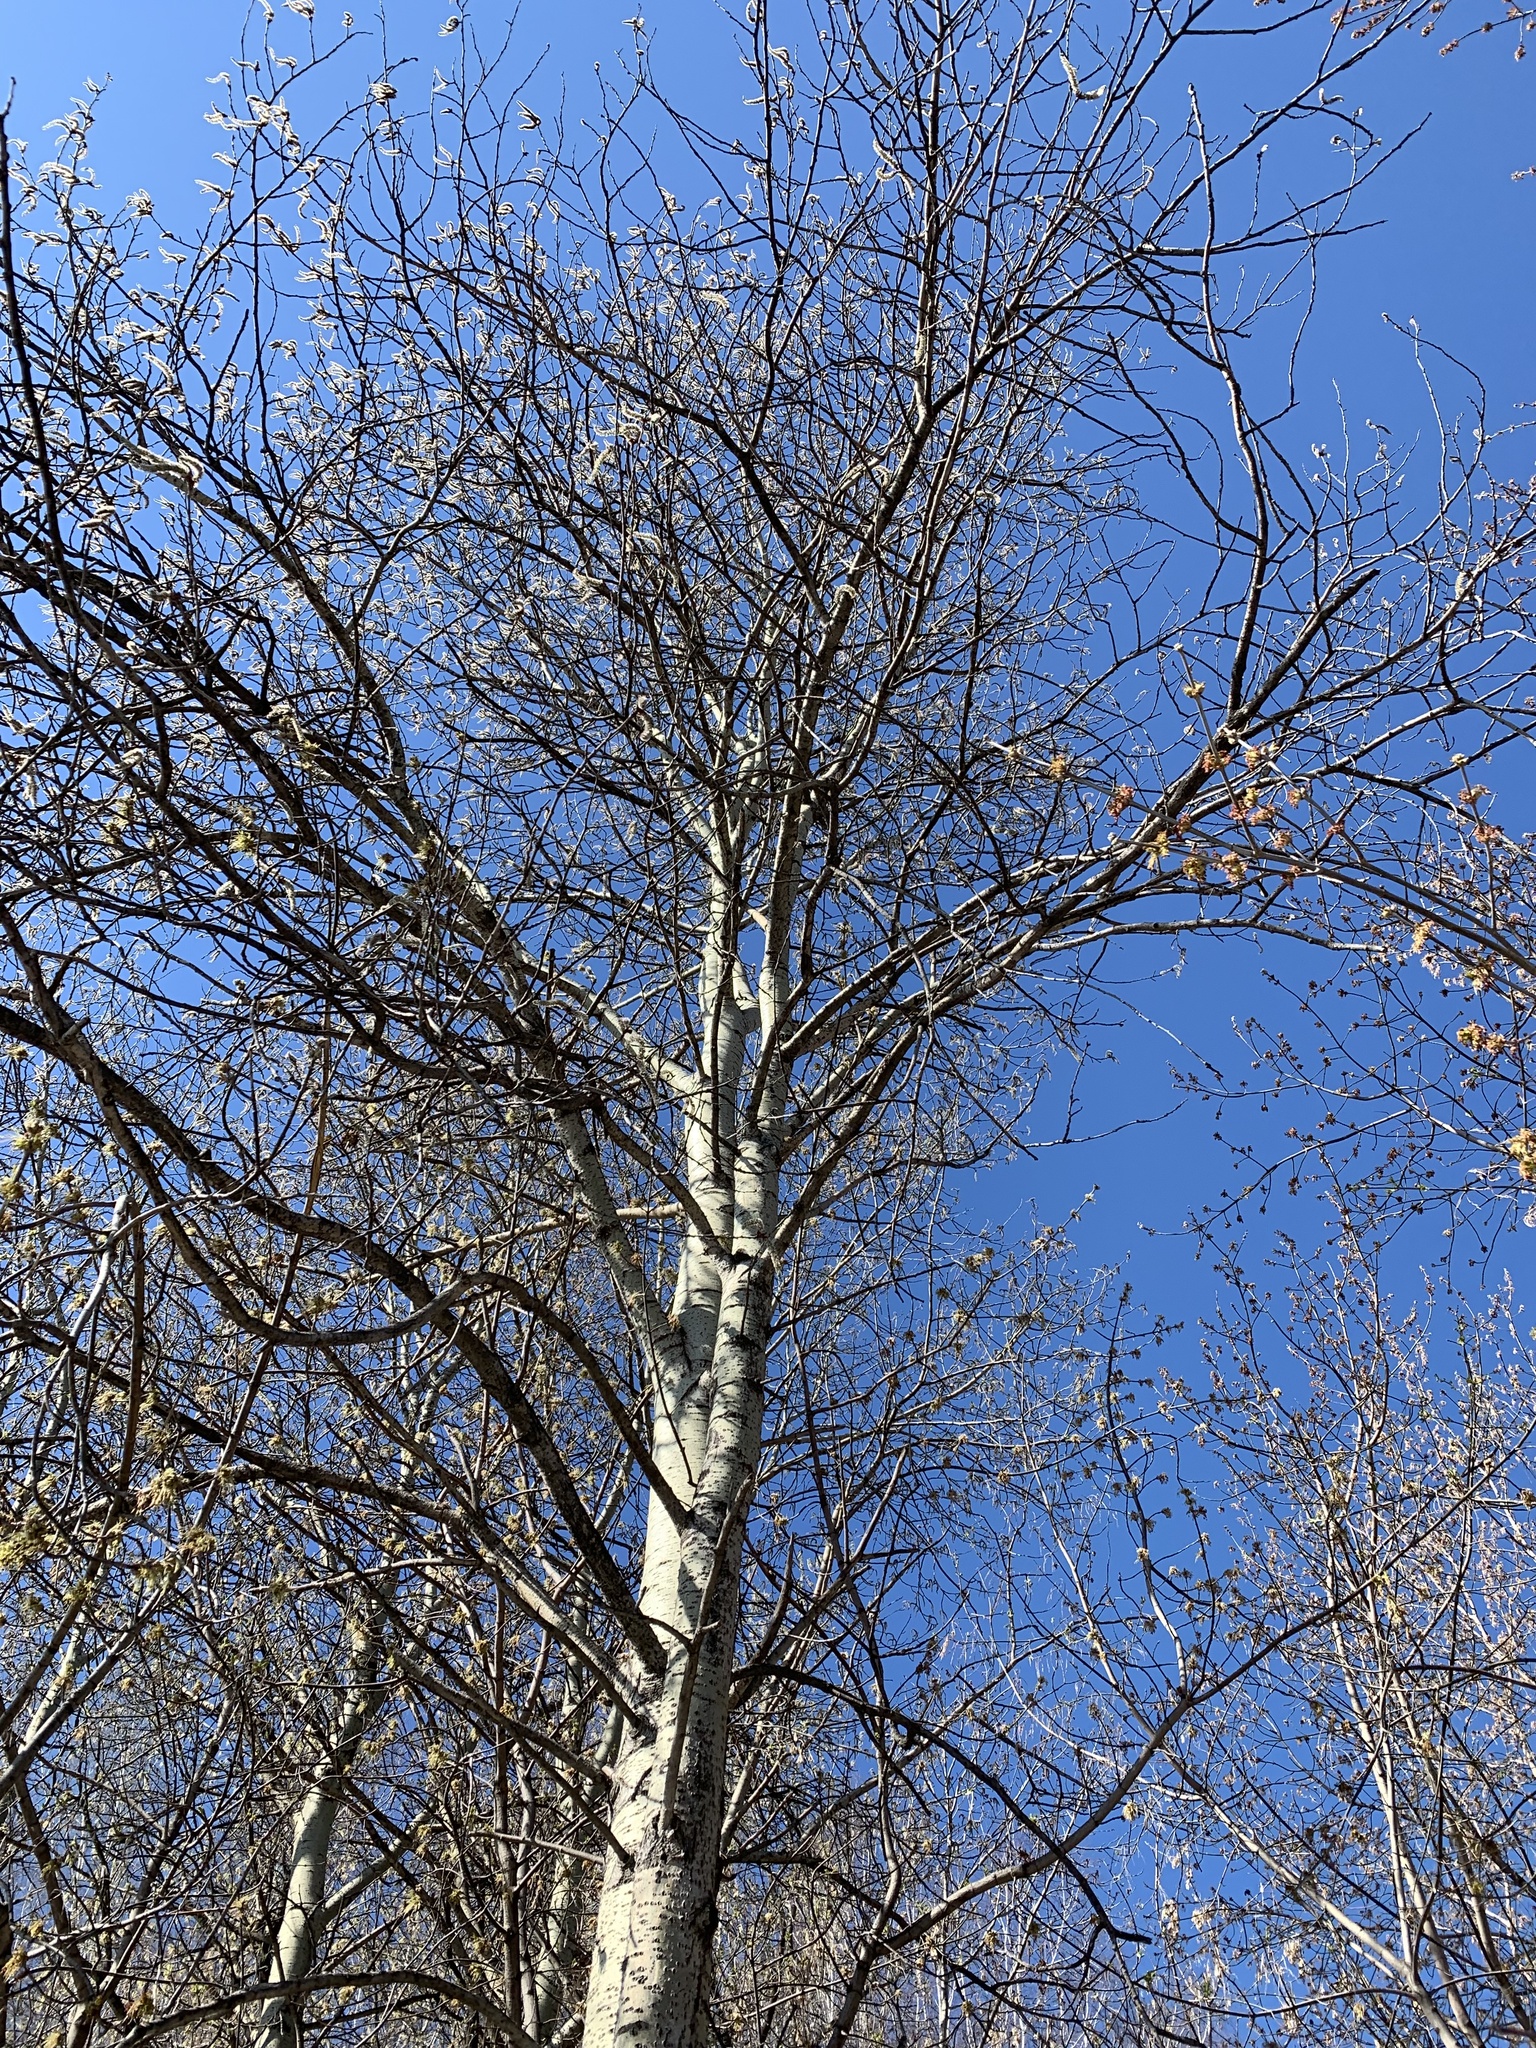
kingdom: Plantae
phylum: Tracheophyta
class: Magnoliopsida
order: Malpighiales
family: Salicaceae
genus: Populus
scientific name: Populus tremula
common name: European aspen
